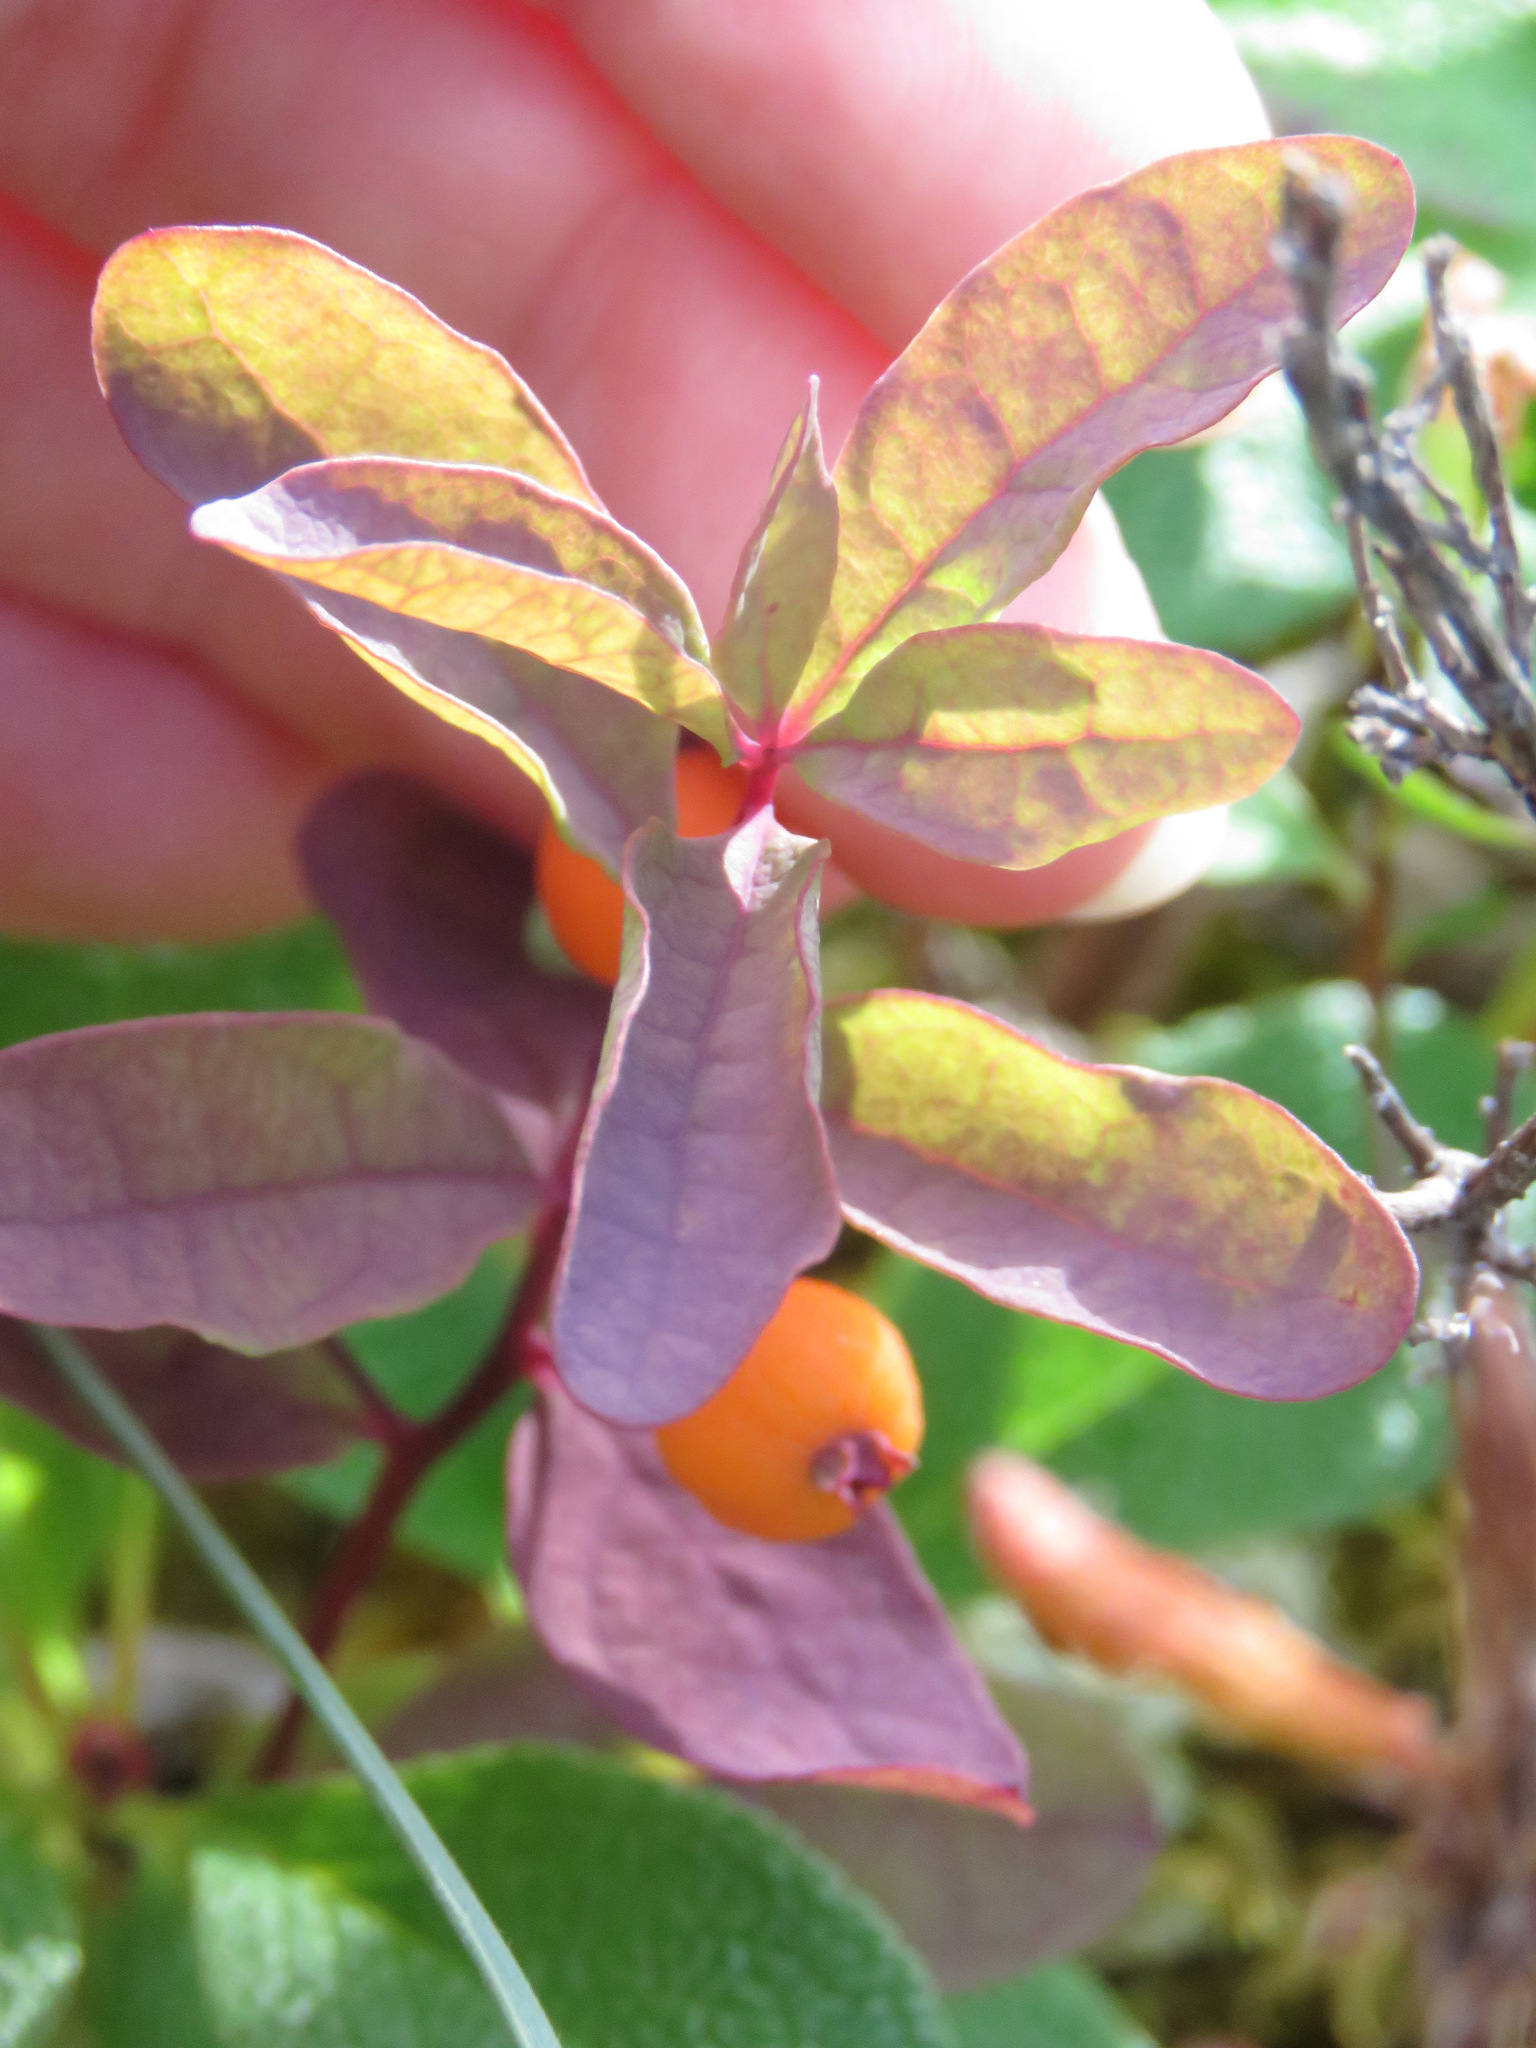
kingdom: Plantae
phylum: Tracheophyta
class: Magnoliopsida
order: Santalales
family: Comandraceae
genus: Geocaulon
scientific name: Geocaulon lividum
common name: Earthberry
